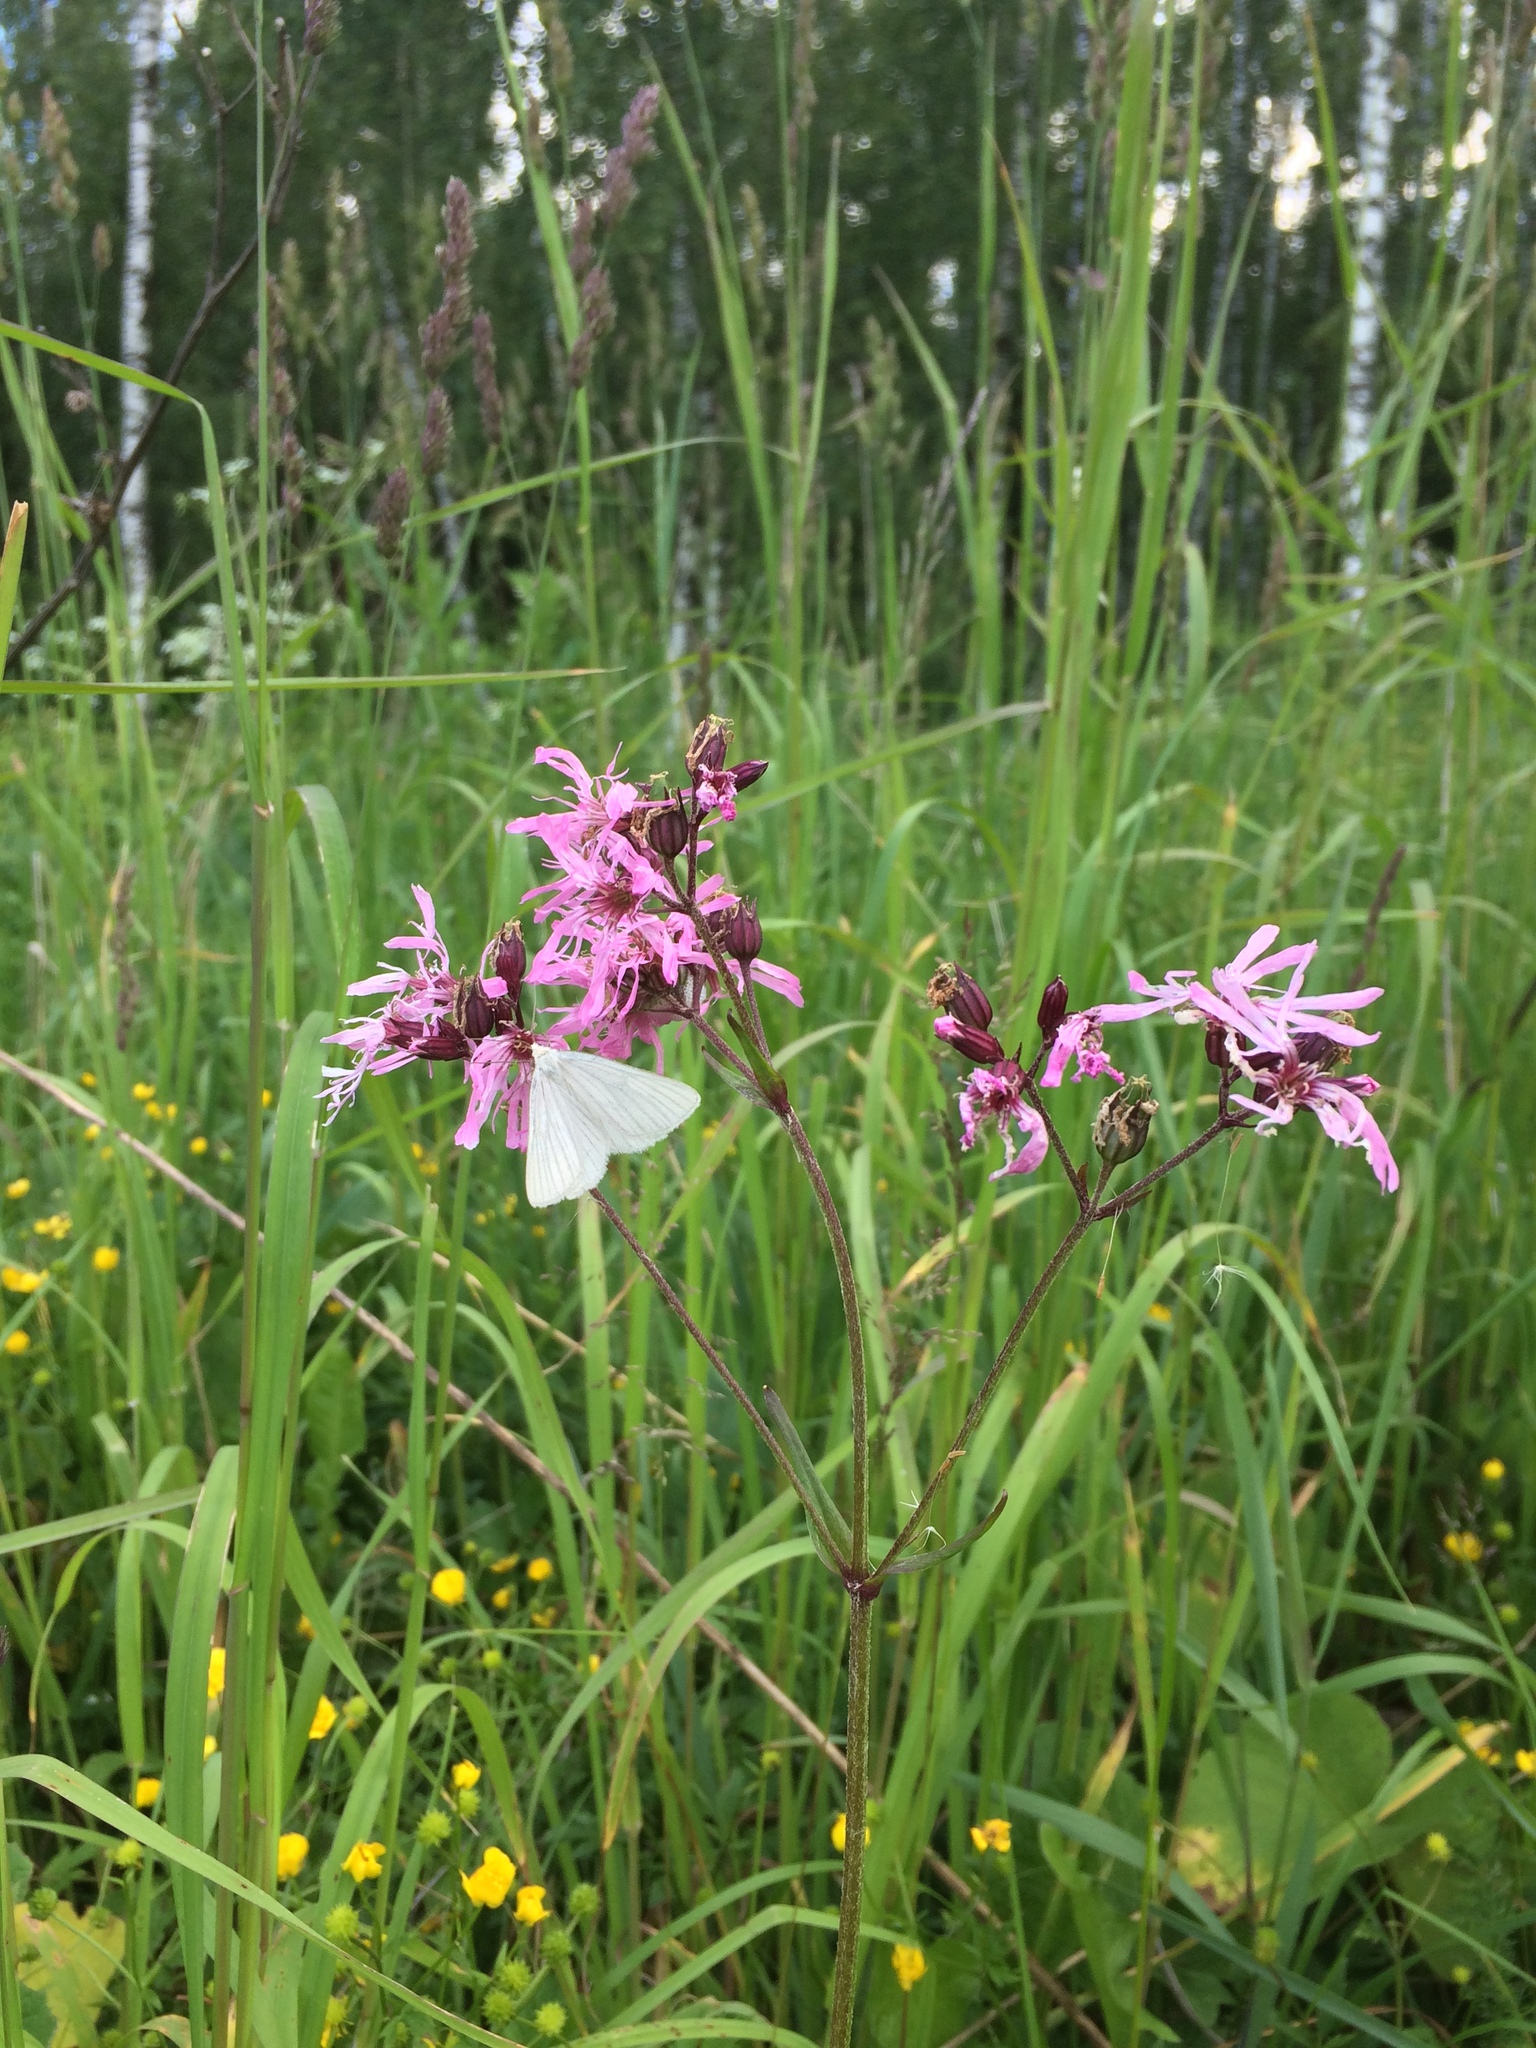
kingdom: Plantae
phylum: Tracheophyta
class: Magnoliopsida
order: Caryophyllales
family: Caryophyllaceae
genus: Silene
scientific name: Silene flos-cuculi
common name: Ragged-robin
